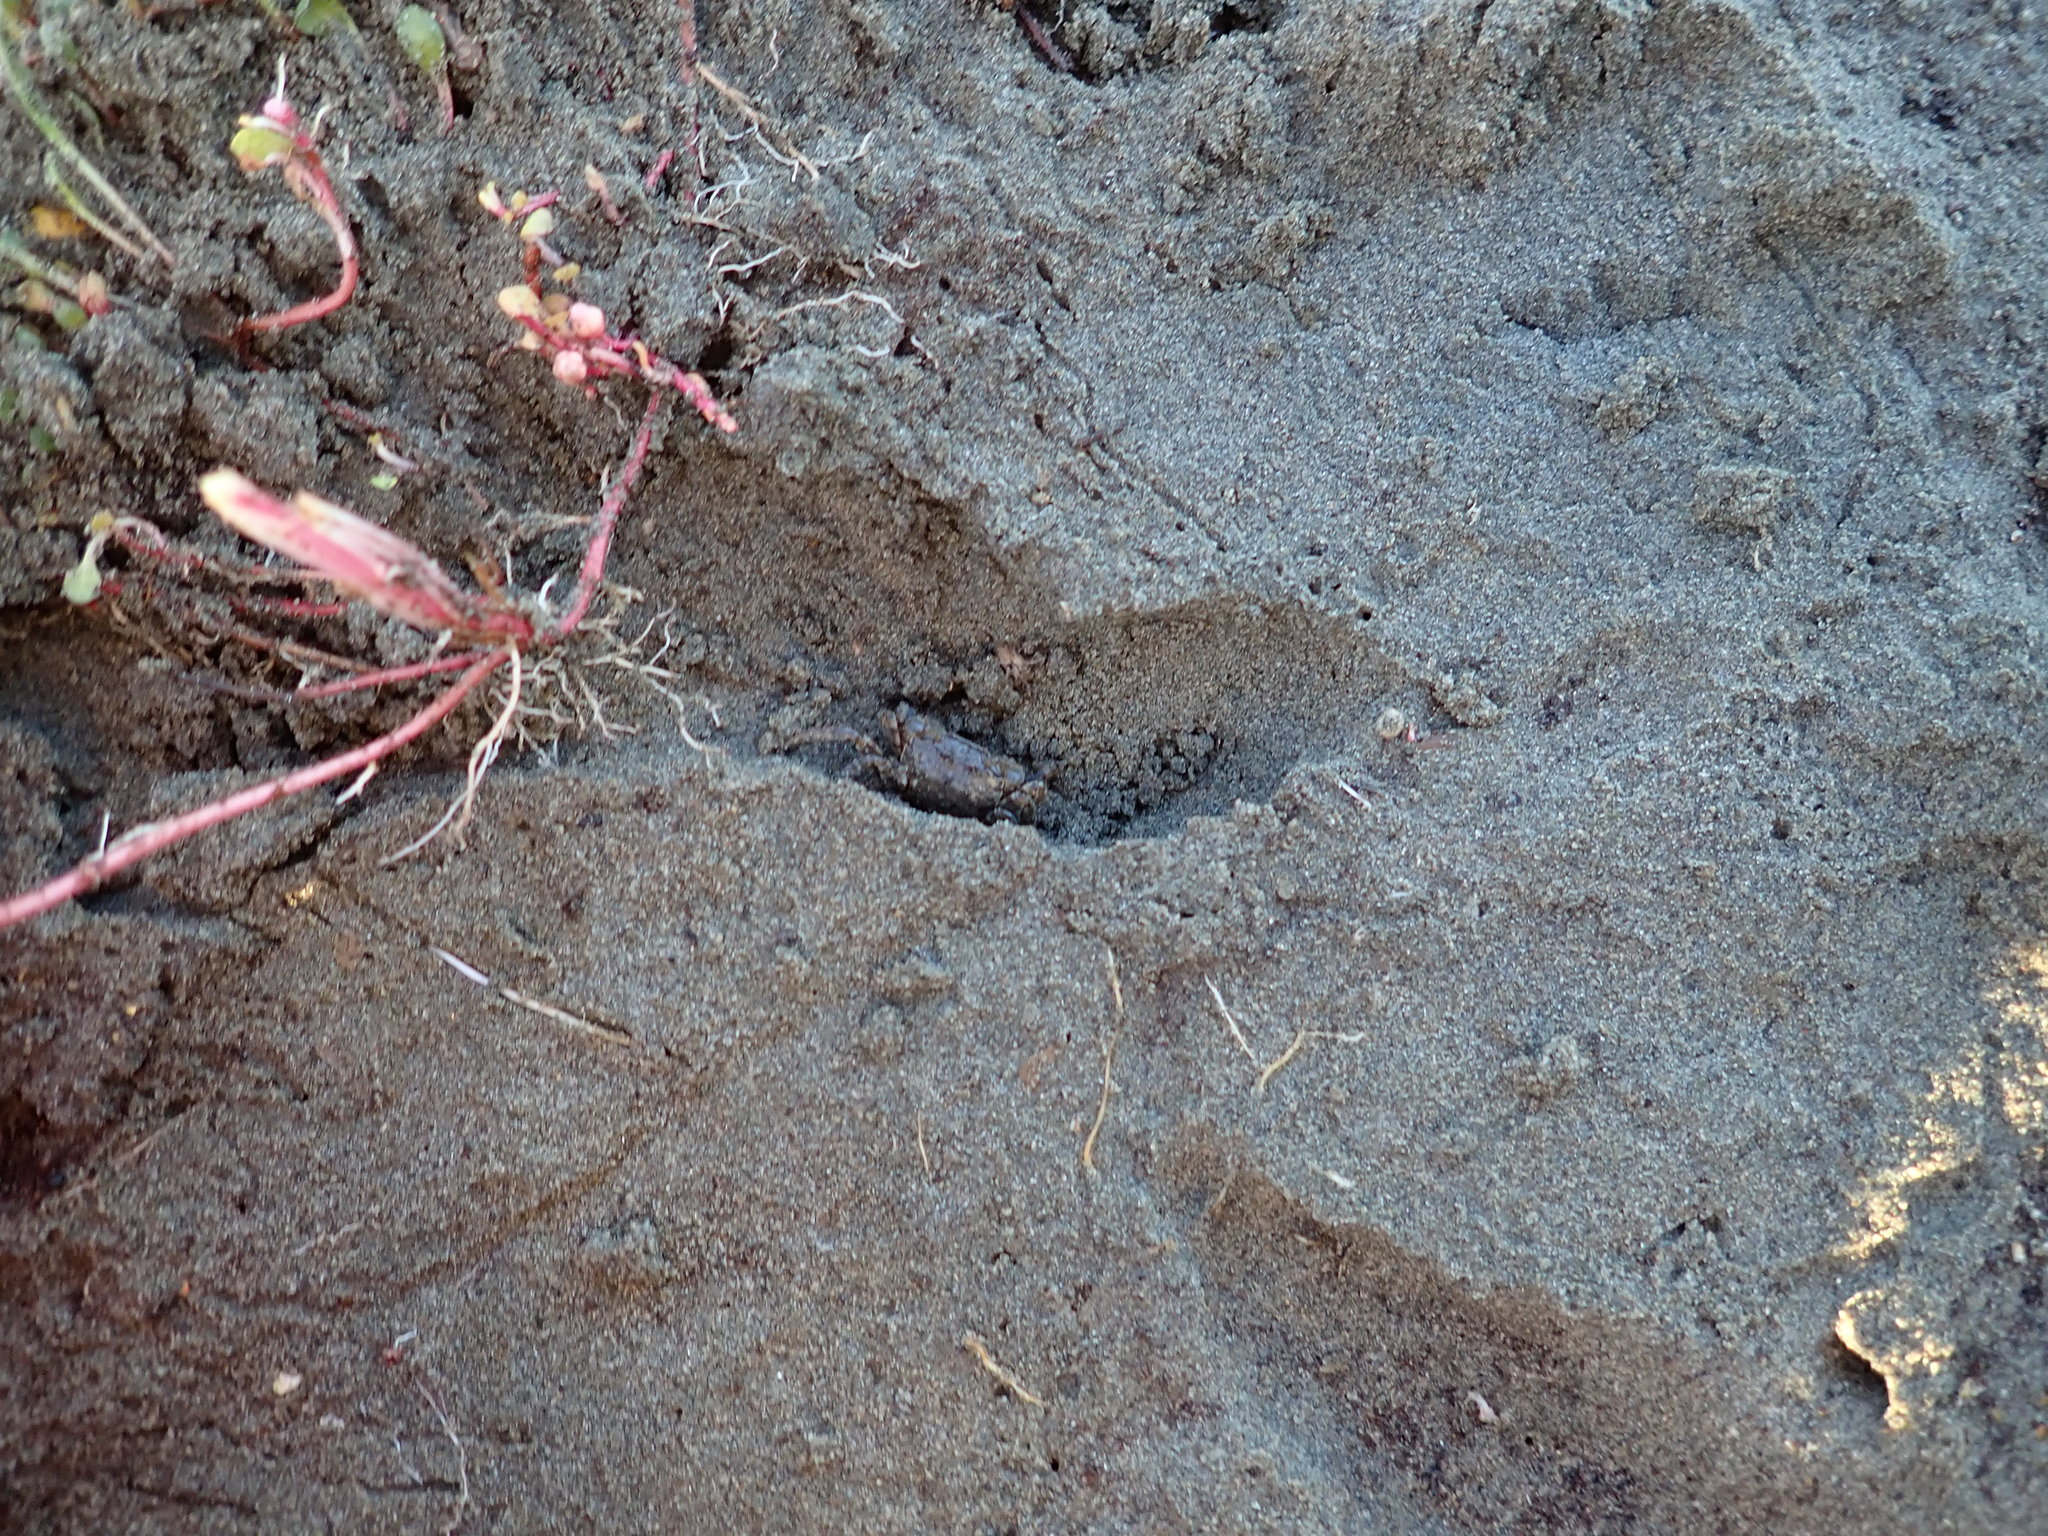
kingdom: Animalia
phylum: Arthropoda
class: Malacostraca
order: Decapoda
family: Varunidae
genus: Austrohelice
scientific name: Austrohelice crassa
